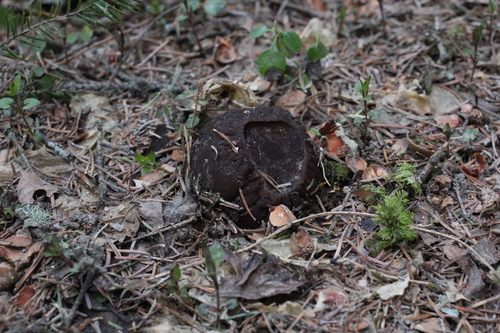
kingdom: Fungi
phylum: Ascomycota
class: Pezizomycetes
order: Pezizales
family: Sarcosomataceae
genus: Sarcosoma
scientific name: Sarcosoma globosum
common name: Charred-pancake cup
